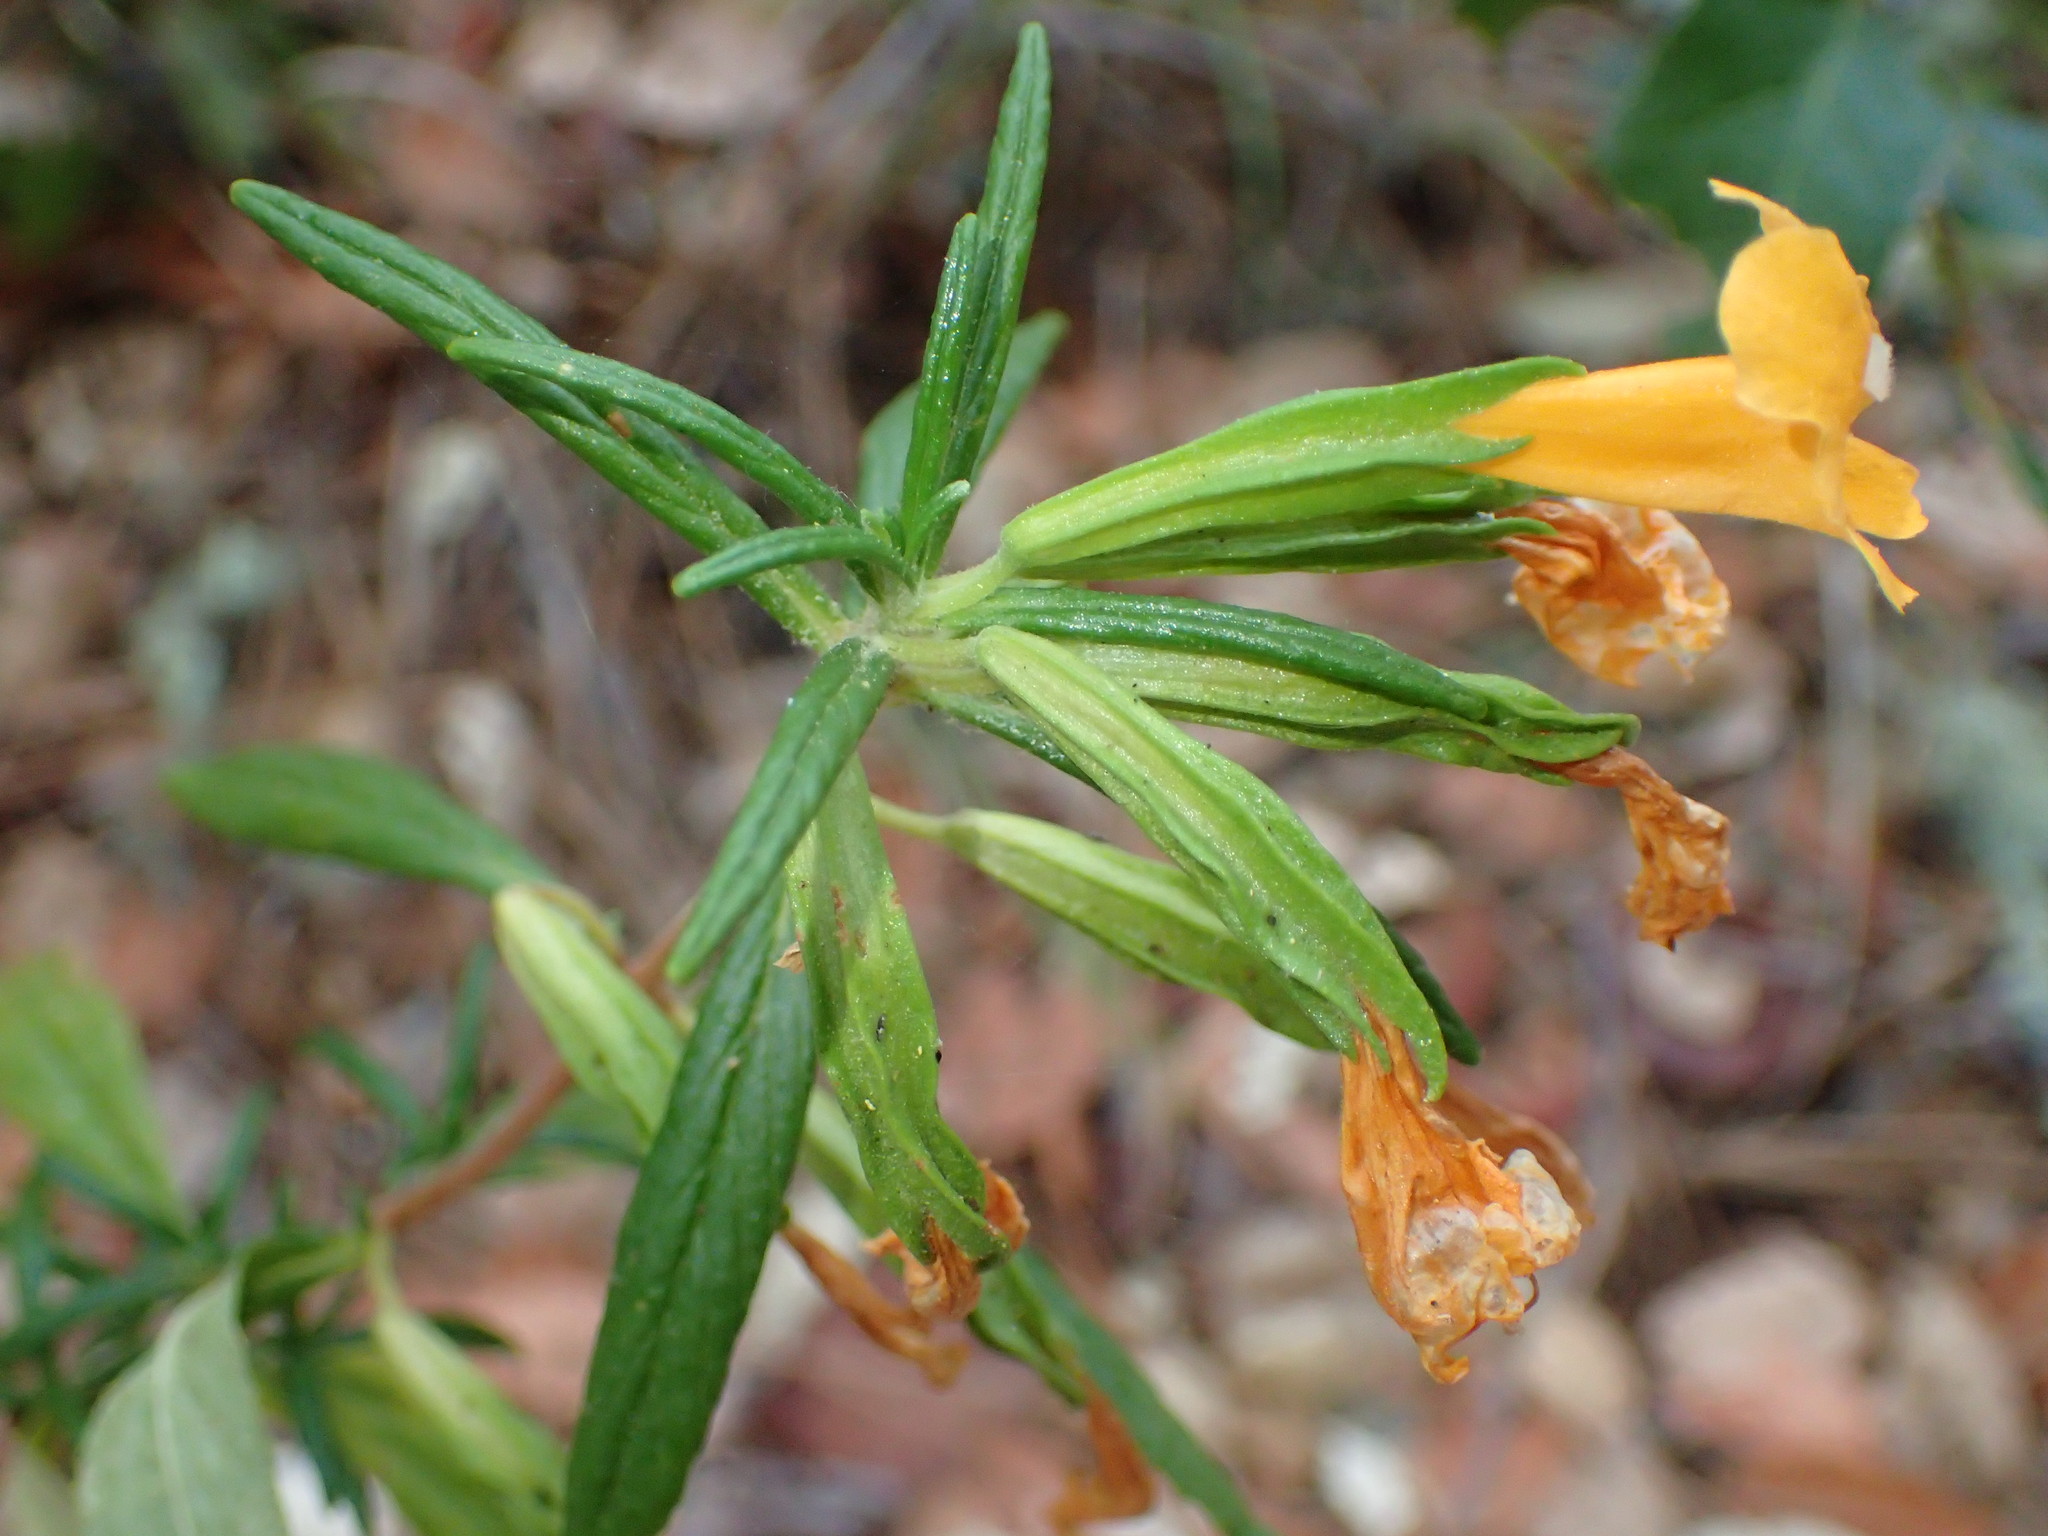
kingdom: Plantae
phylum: Tracheophyta
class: Magnoliopsida
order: Lamiales
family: Phrymaceae
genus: Diplacus
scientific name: Diplacus aurantiacus
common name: Bush monkey-flower
